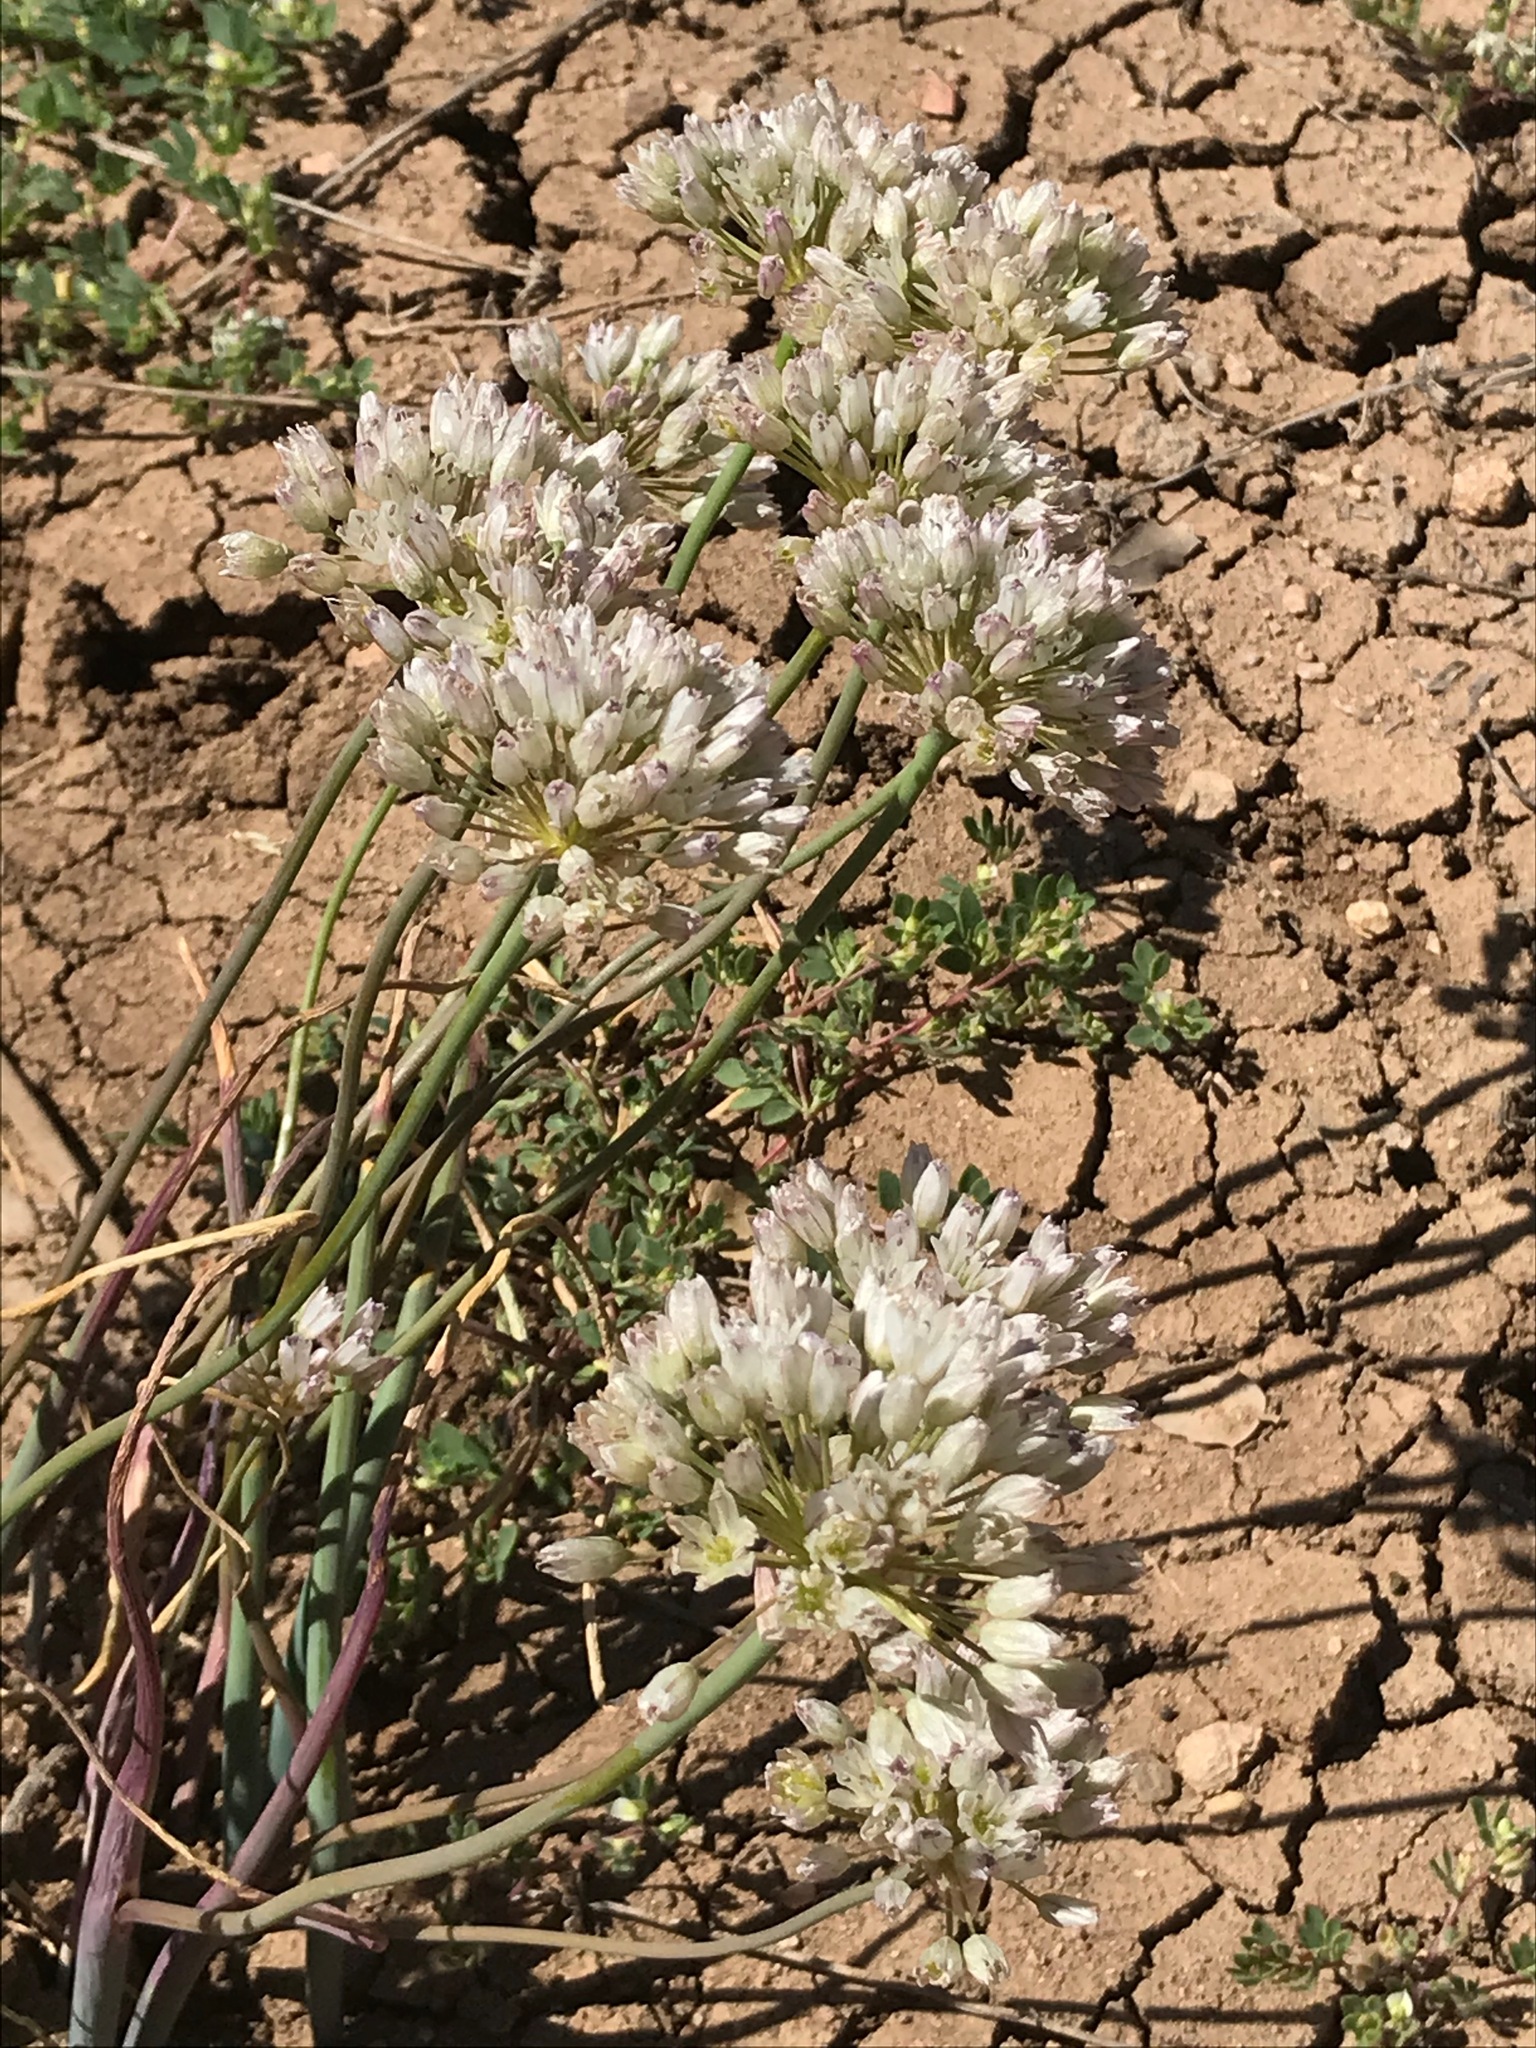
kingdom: Plantae
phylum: Tracheophyta
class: Liliopsida
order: Asparagales
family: Amaryllidaceae
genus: Allium
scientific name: Allium howellii
